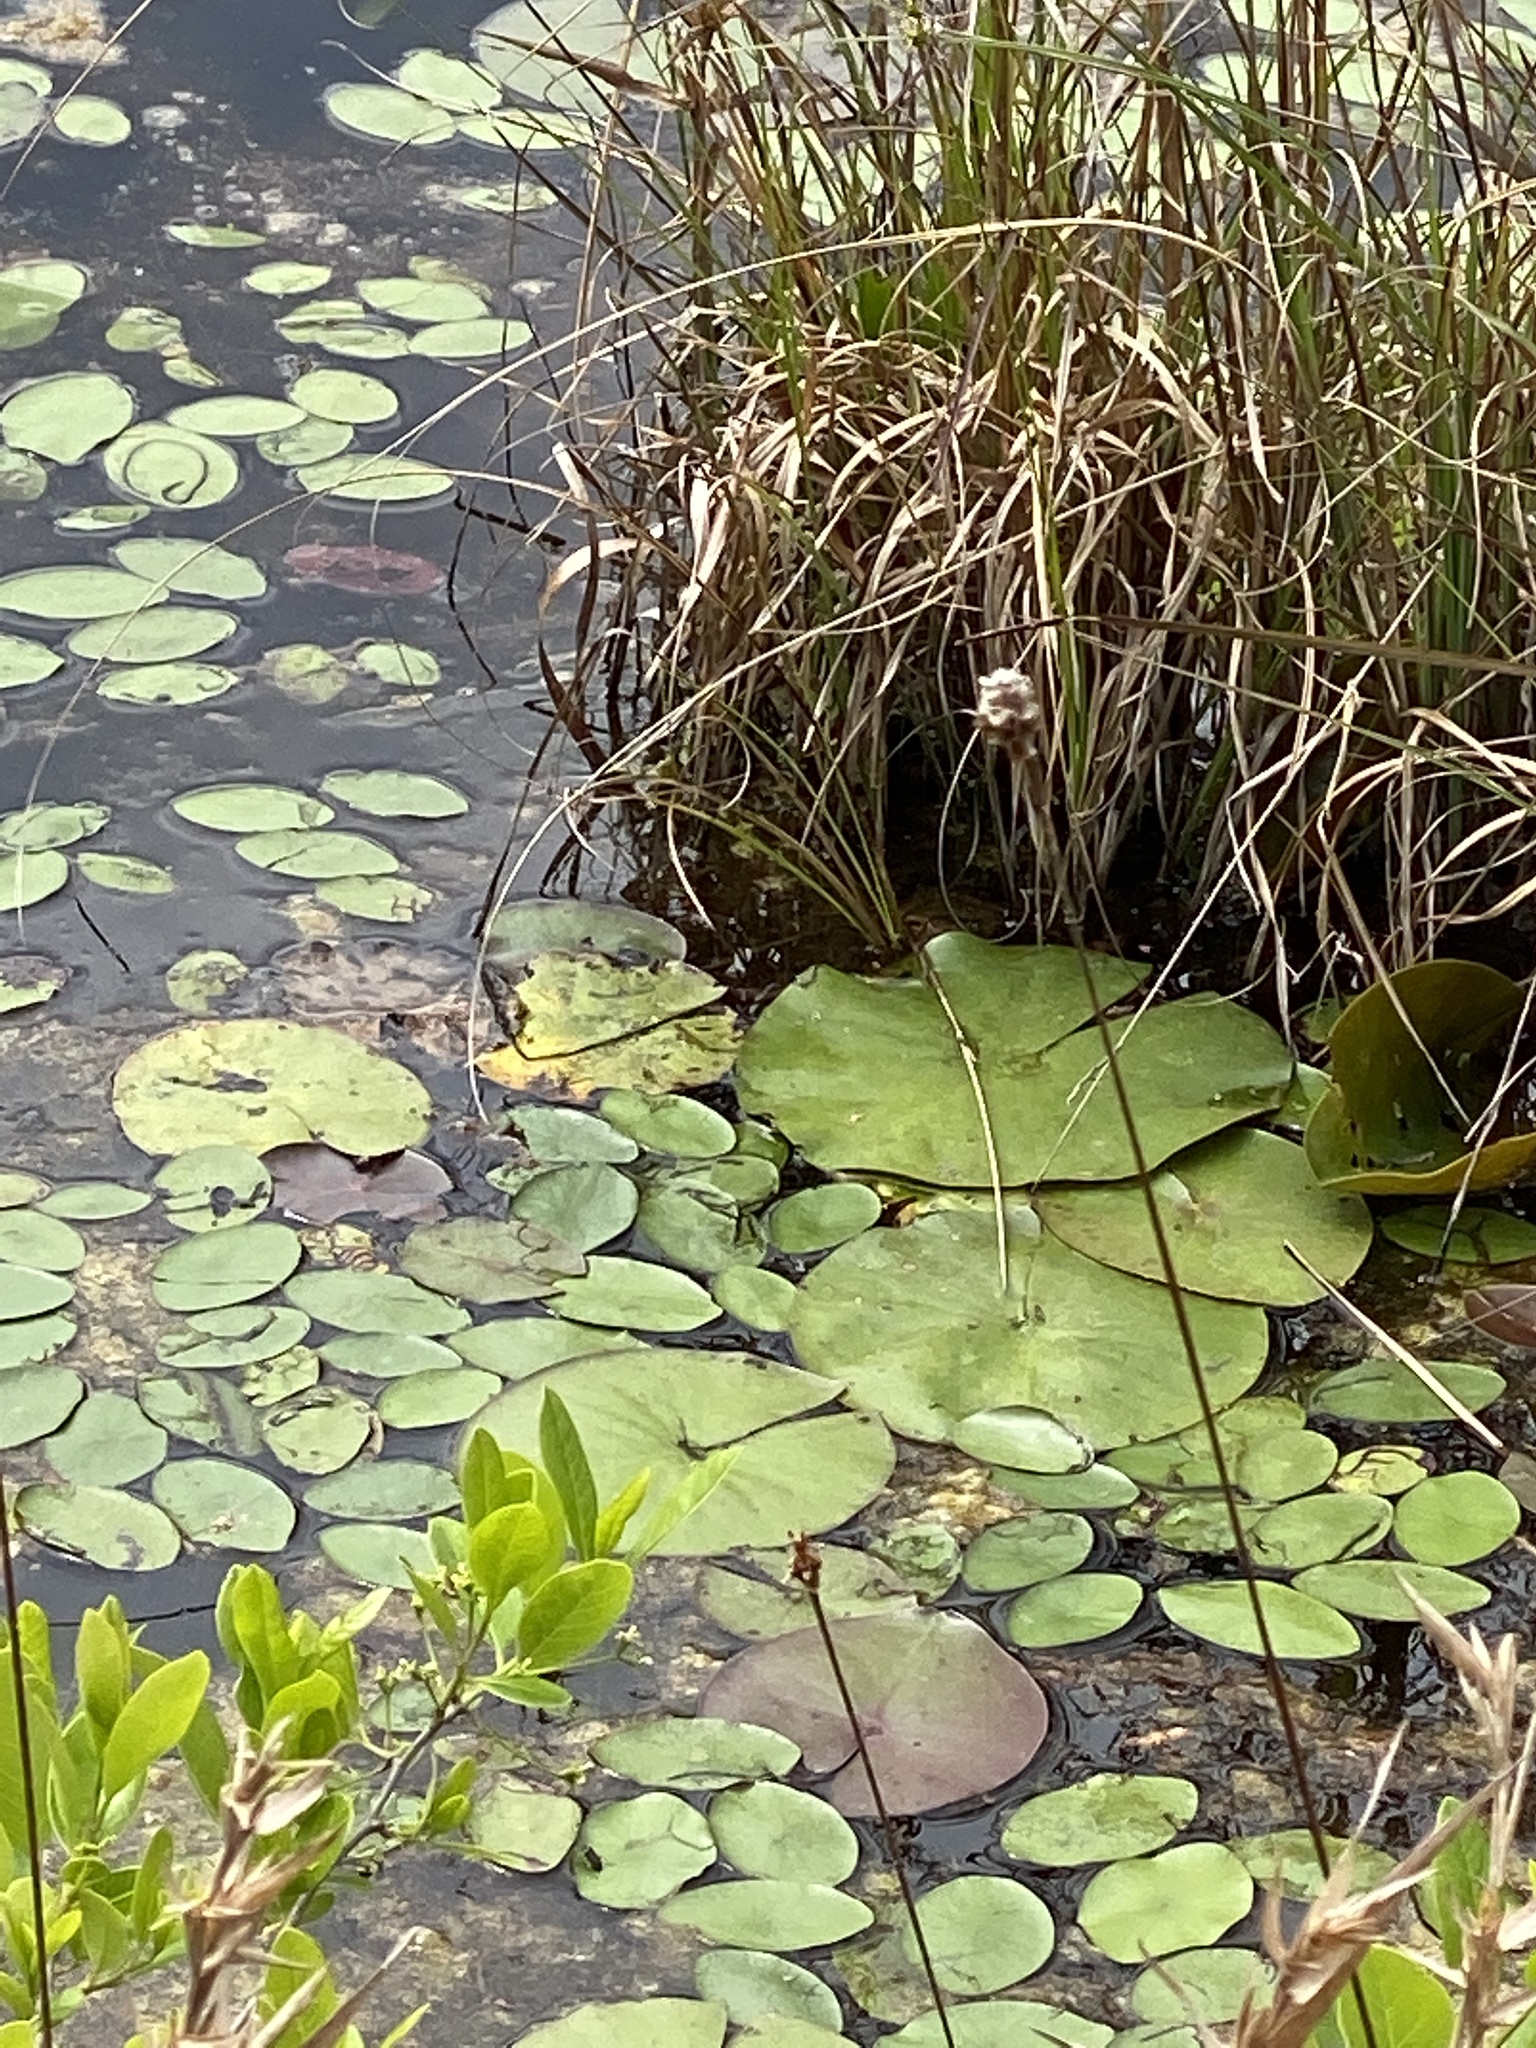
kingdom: Plantae
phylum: Tracheophyta
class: Magnoliopsida
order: Nymphaeales
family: Nymphaeaceae
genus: Nymphaea
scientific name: Nymphaea odorata
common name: Fragrant water-lily
